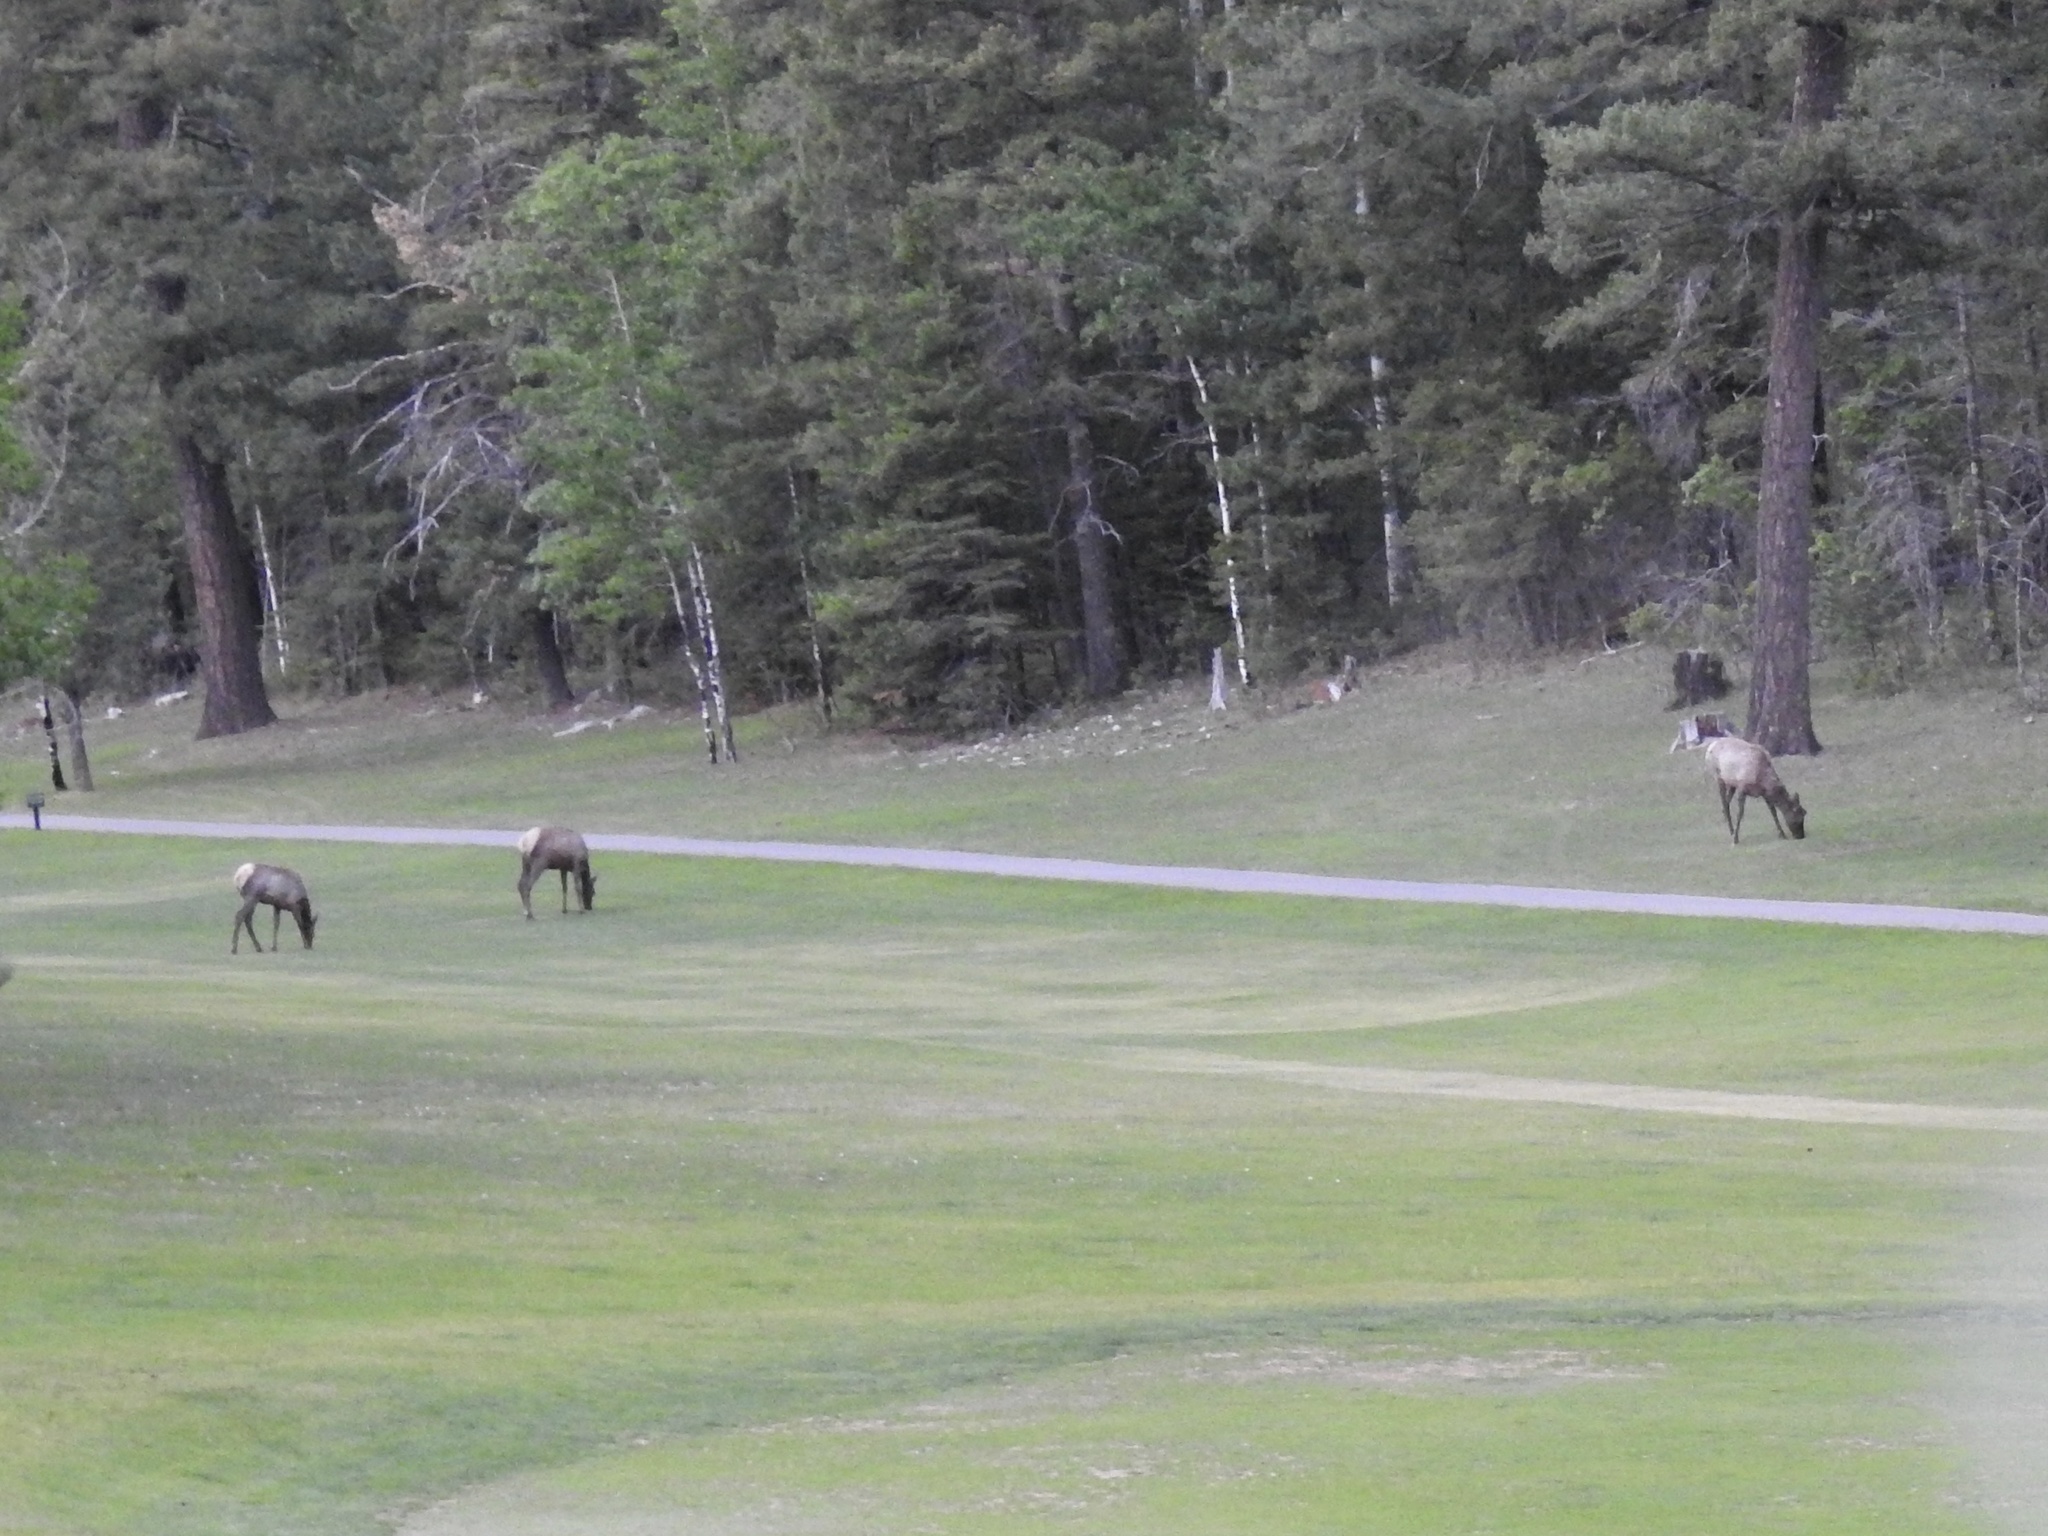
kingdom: Animalia
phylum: Chordata
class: Mammalia
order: Artiodactyla
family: Cervidae
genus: Cervus
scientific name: Cervus elaphus
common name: Red deer
